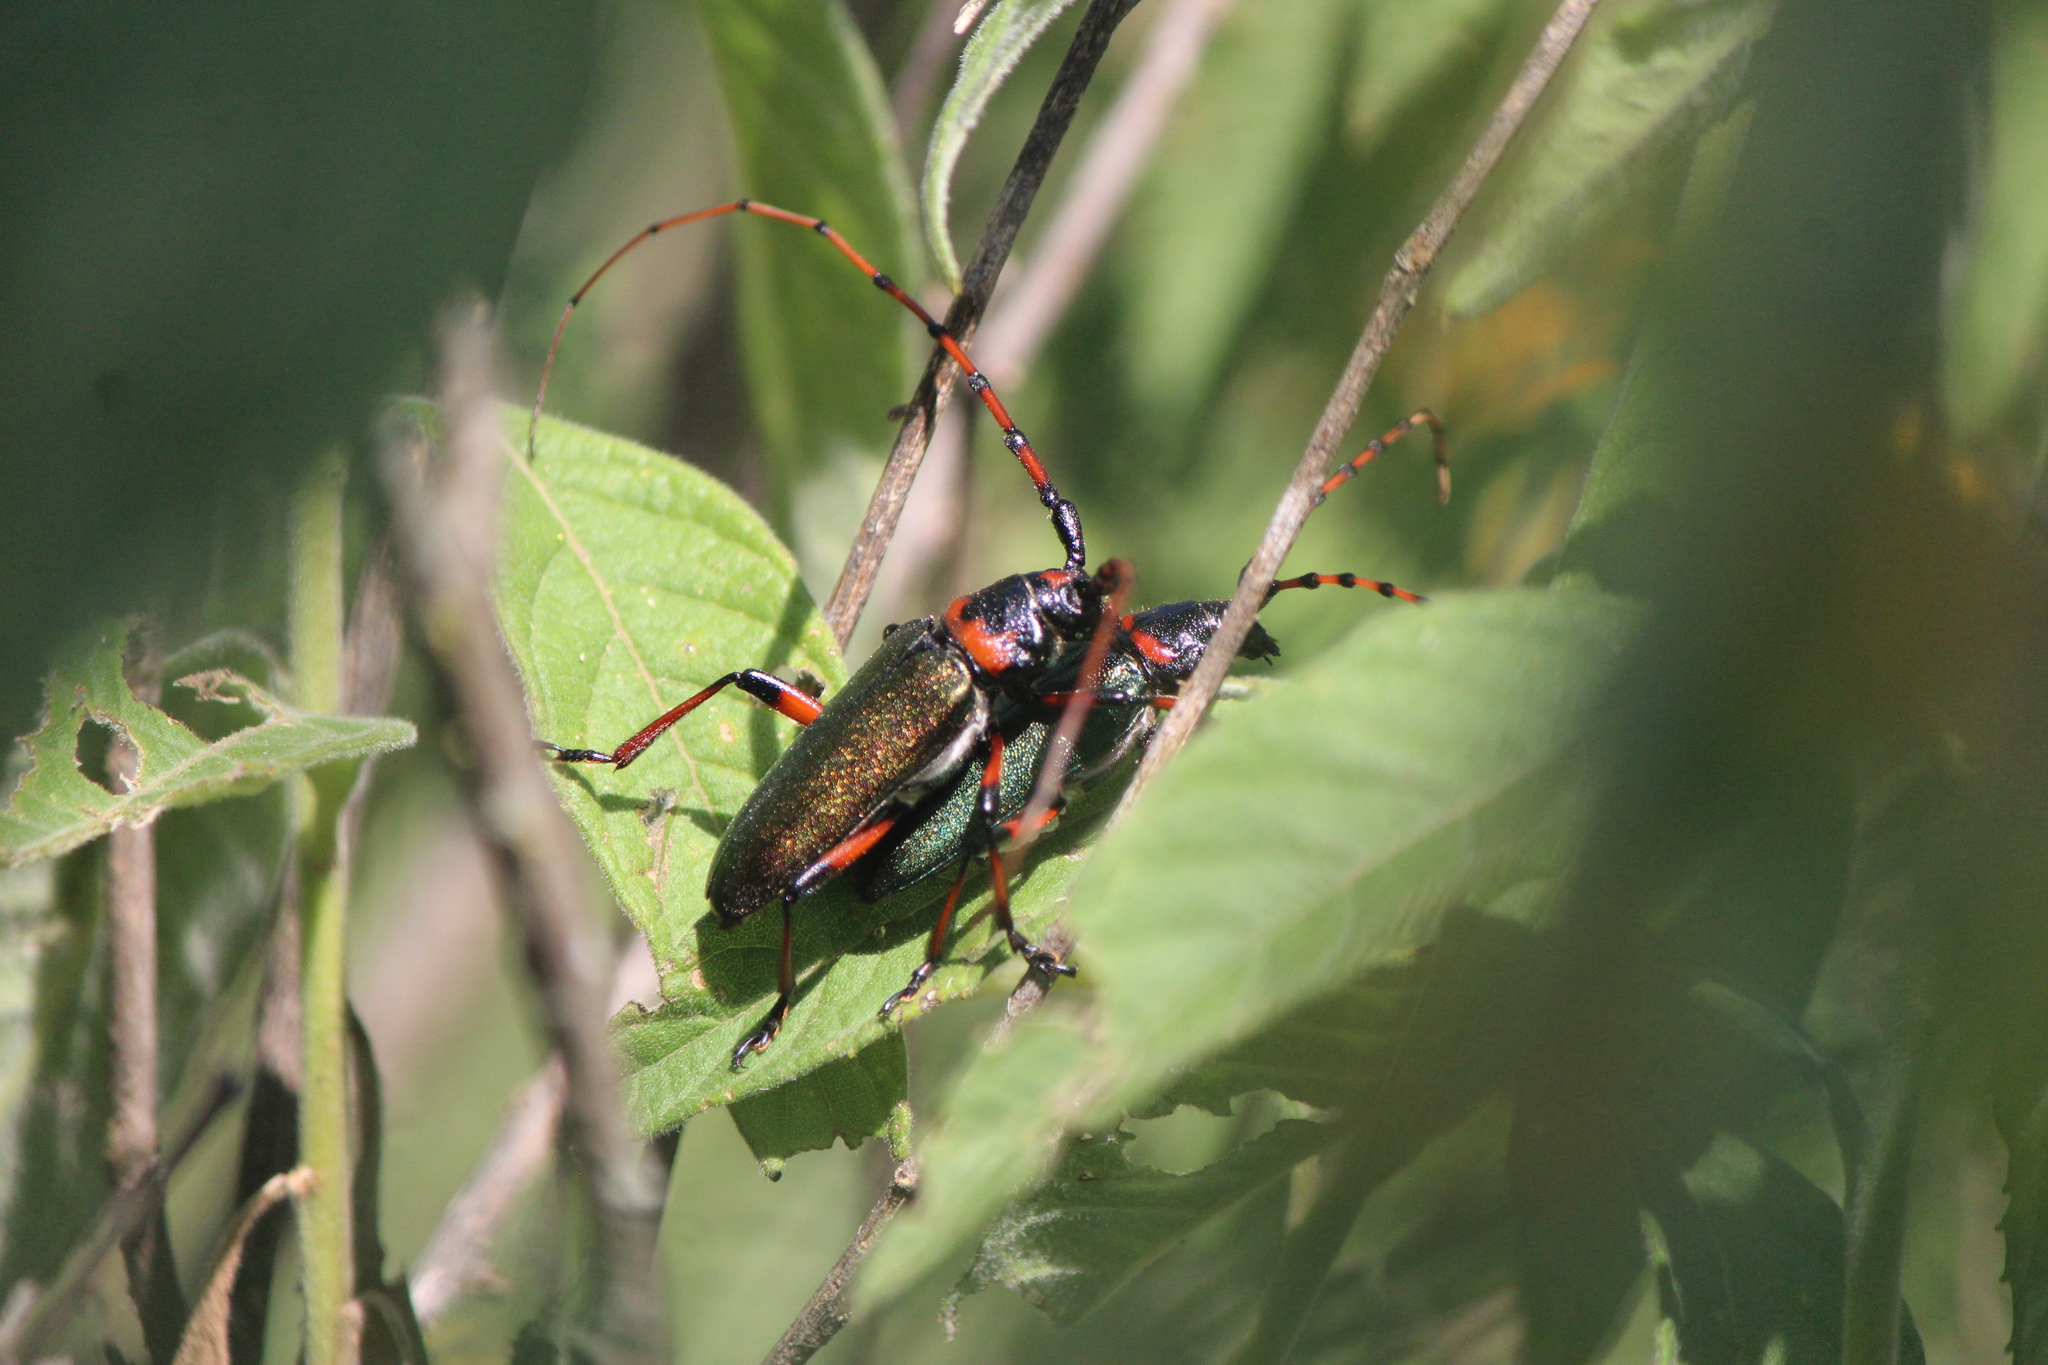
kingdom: Animalia
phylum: Arthropoda
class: Insecta
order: Coleoptera
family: Cerambycidae
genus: Stenaspis
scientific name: Stenaspis verticalis
